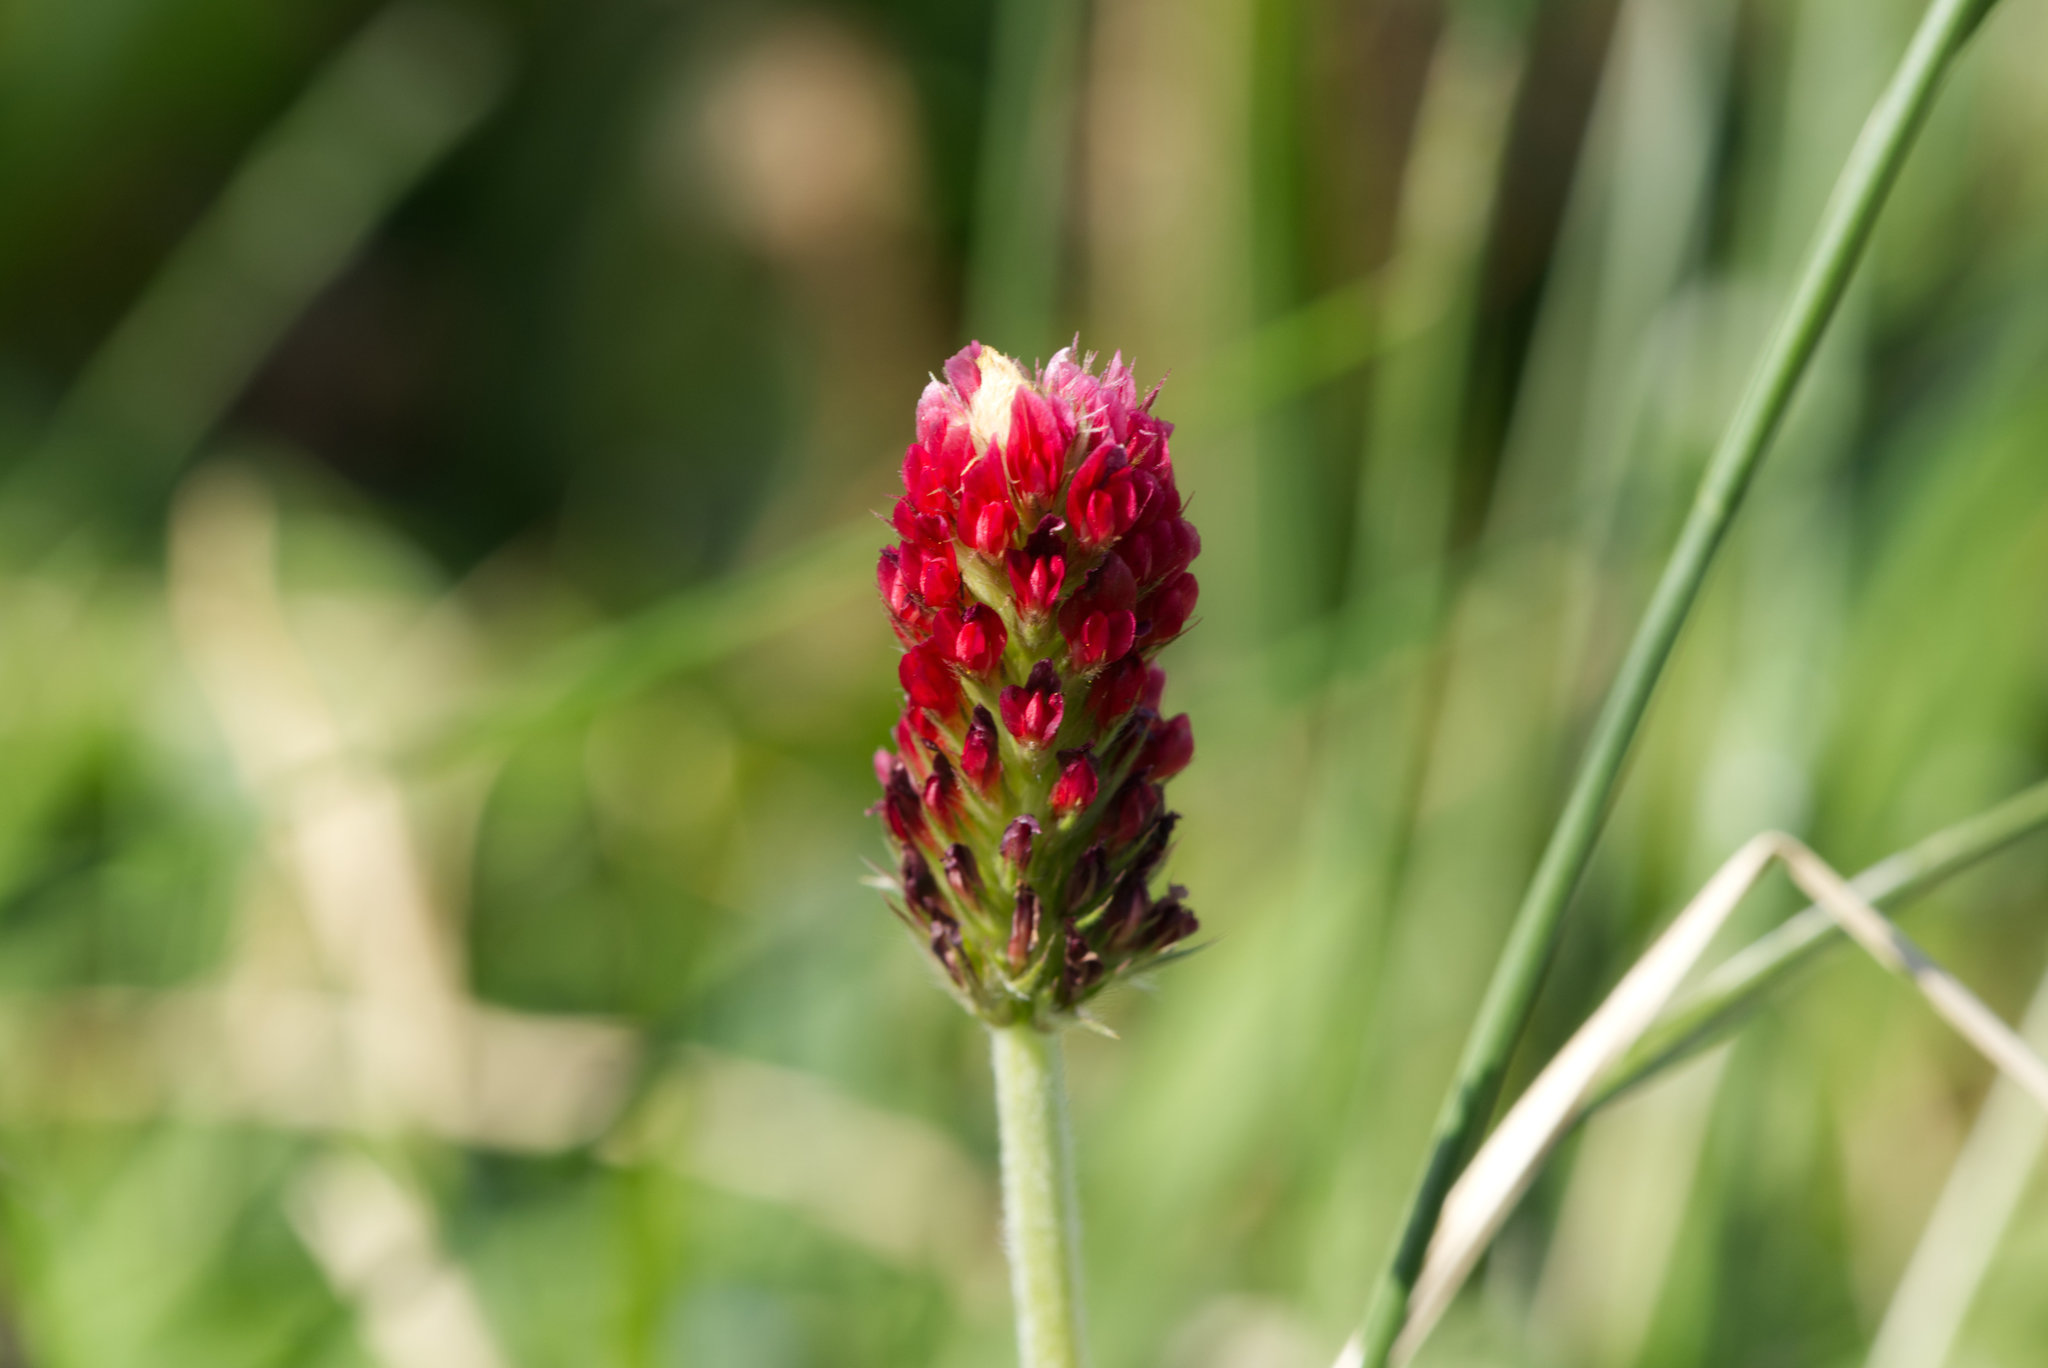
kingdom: Plantae
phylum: Tracheophyta
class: Magnoliopsida
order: Fabales
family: Fabaceae
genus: Trifolium
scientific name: Trifolium incarnatum
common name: Crimson clover
